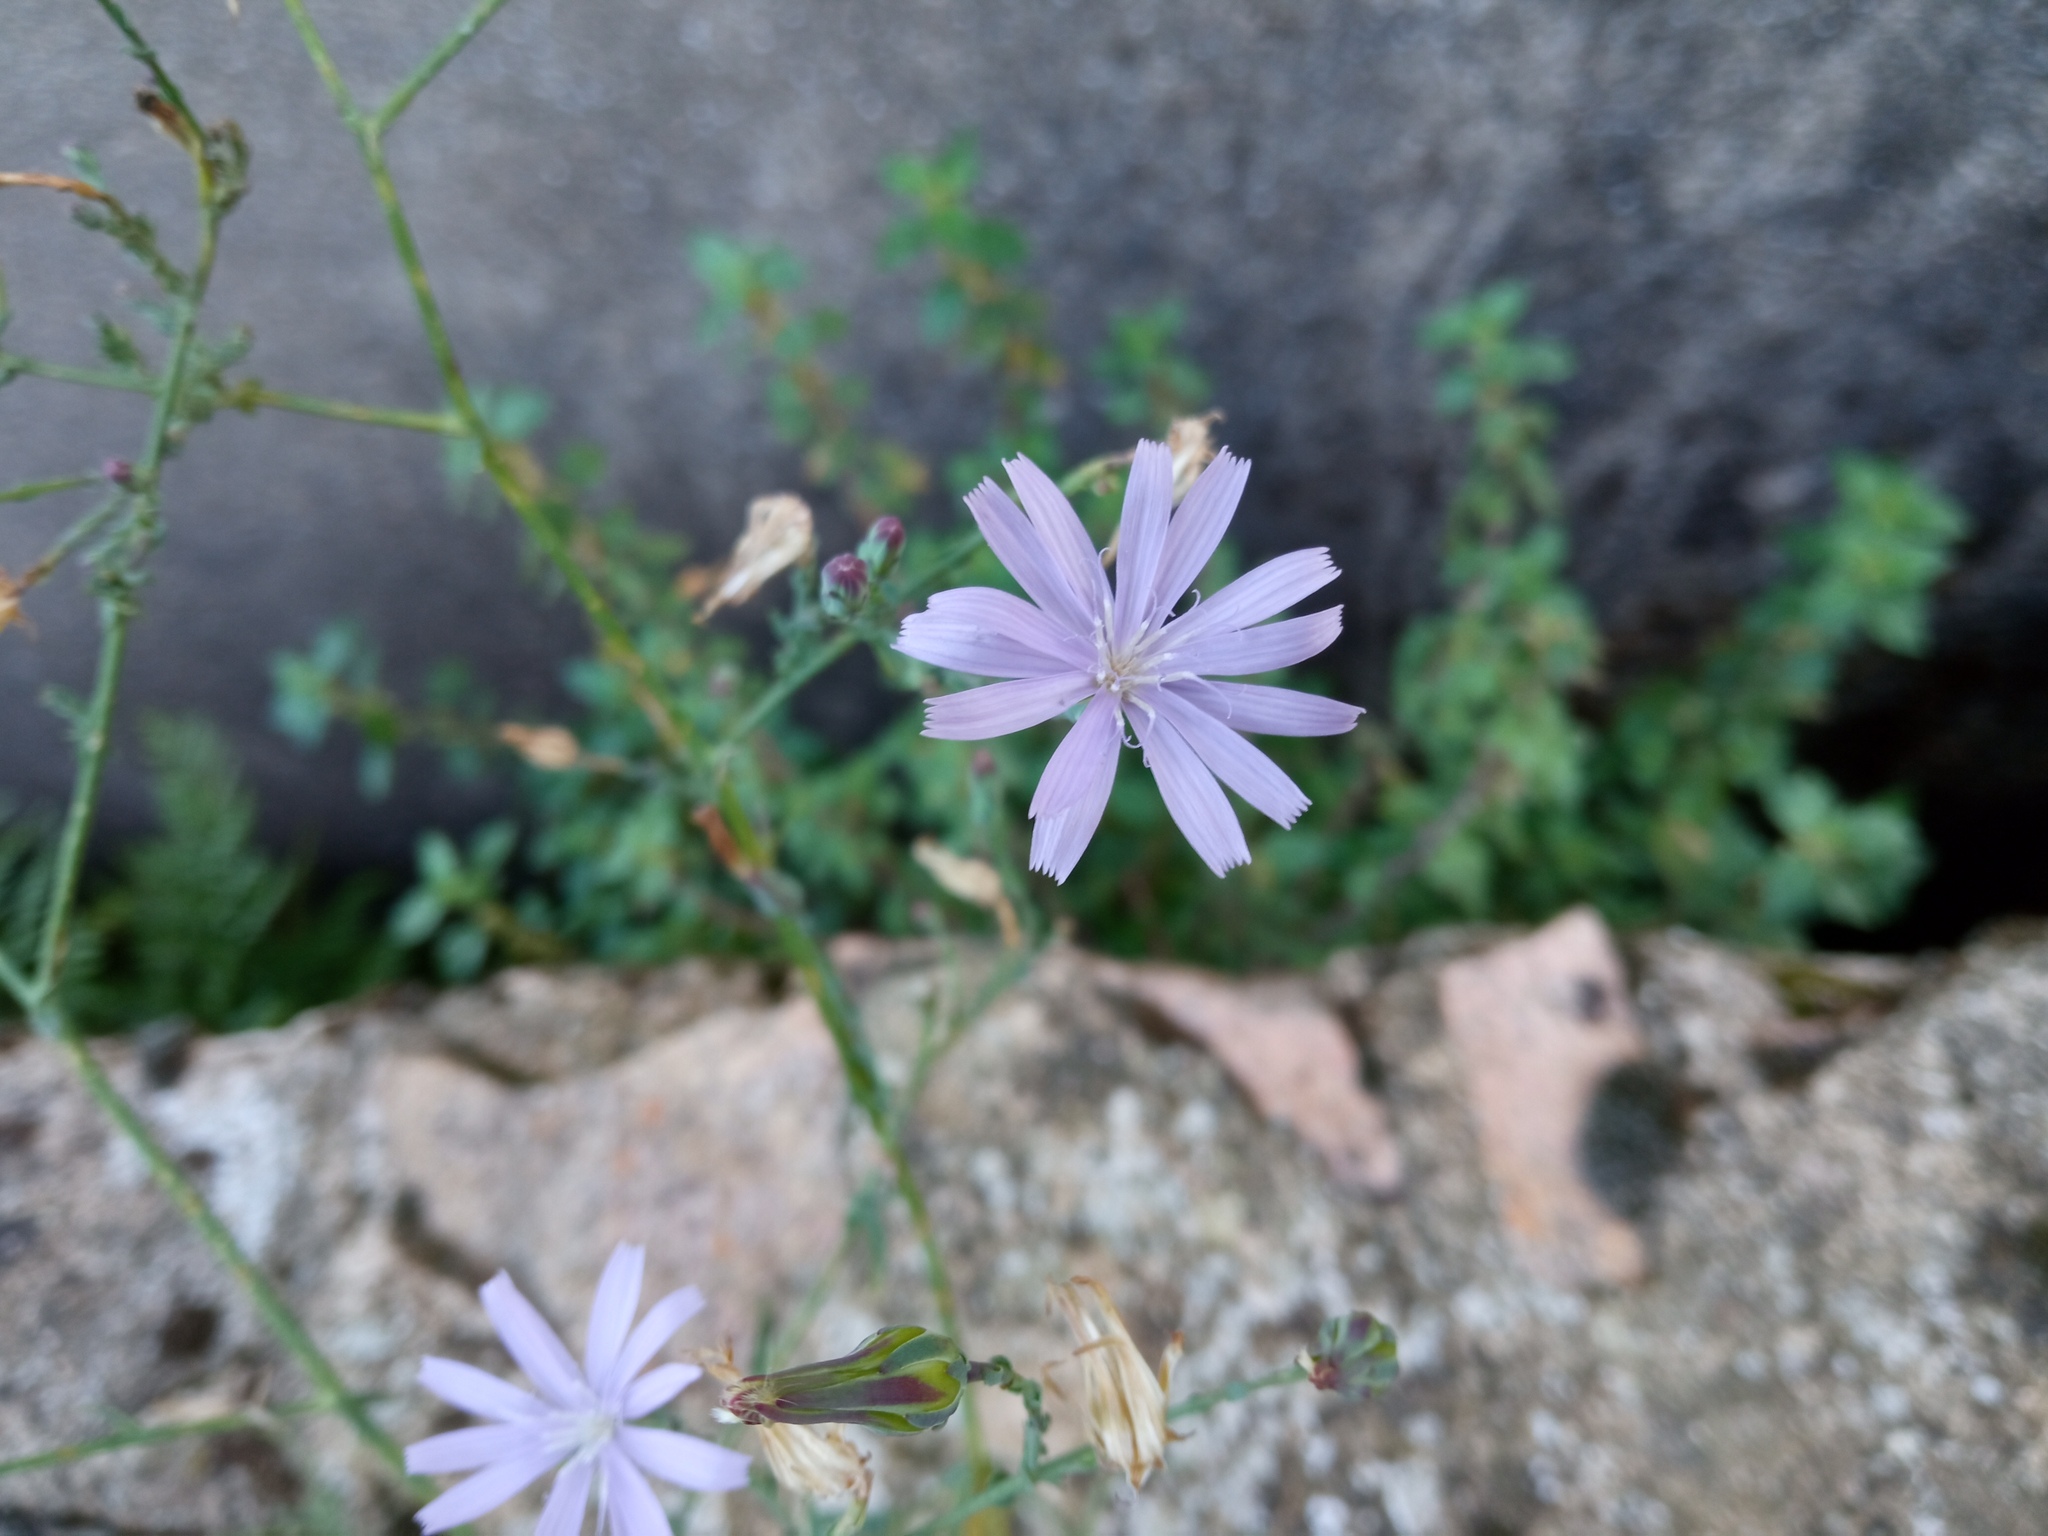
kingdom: Plantae
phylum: Tracheophyta
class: Magnoliopsida
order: Asterales
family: Asteraceae
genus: Lactuca
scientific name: Lactuca tenerrima
